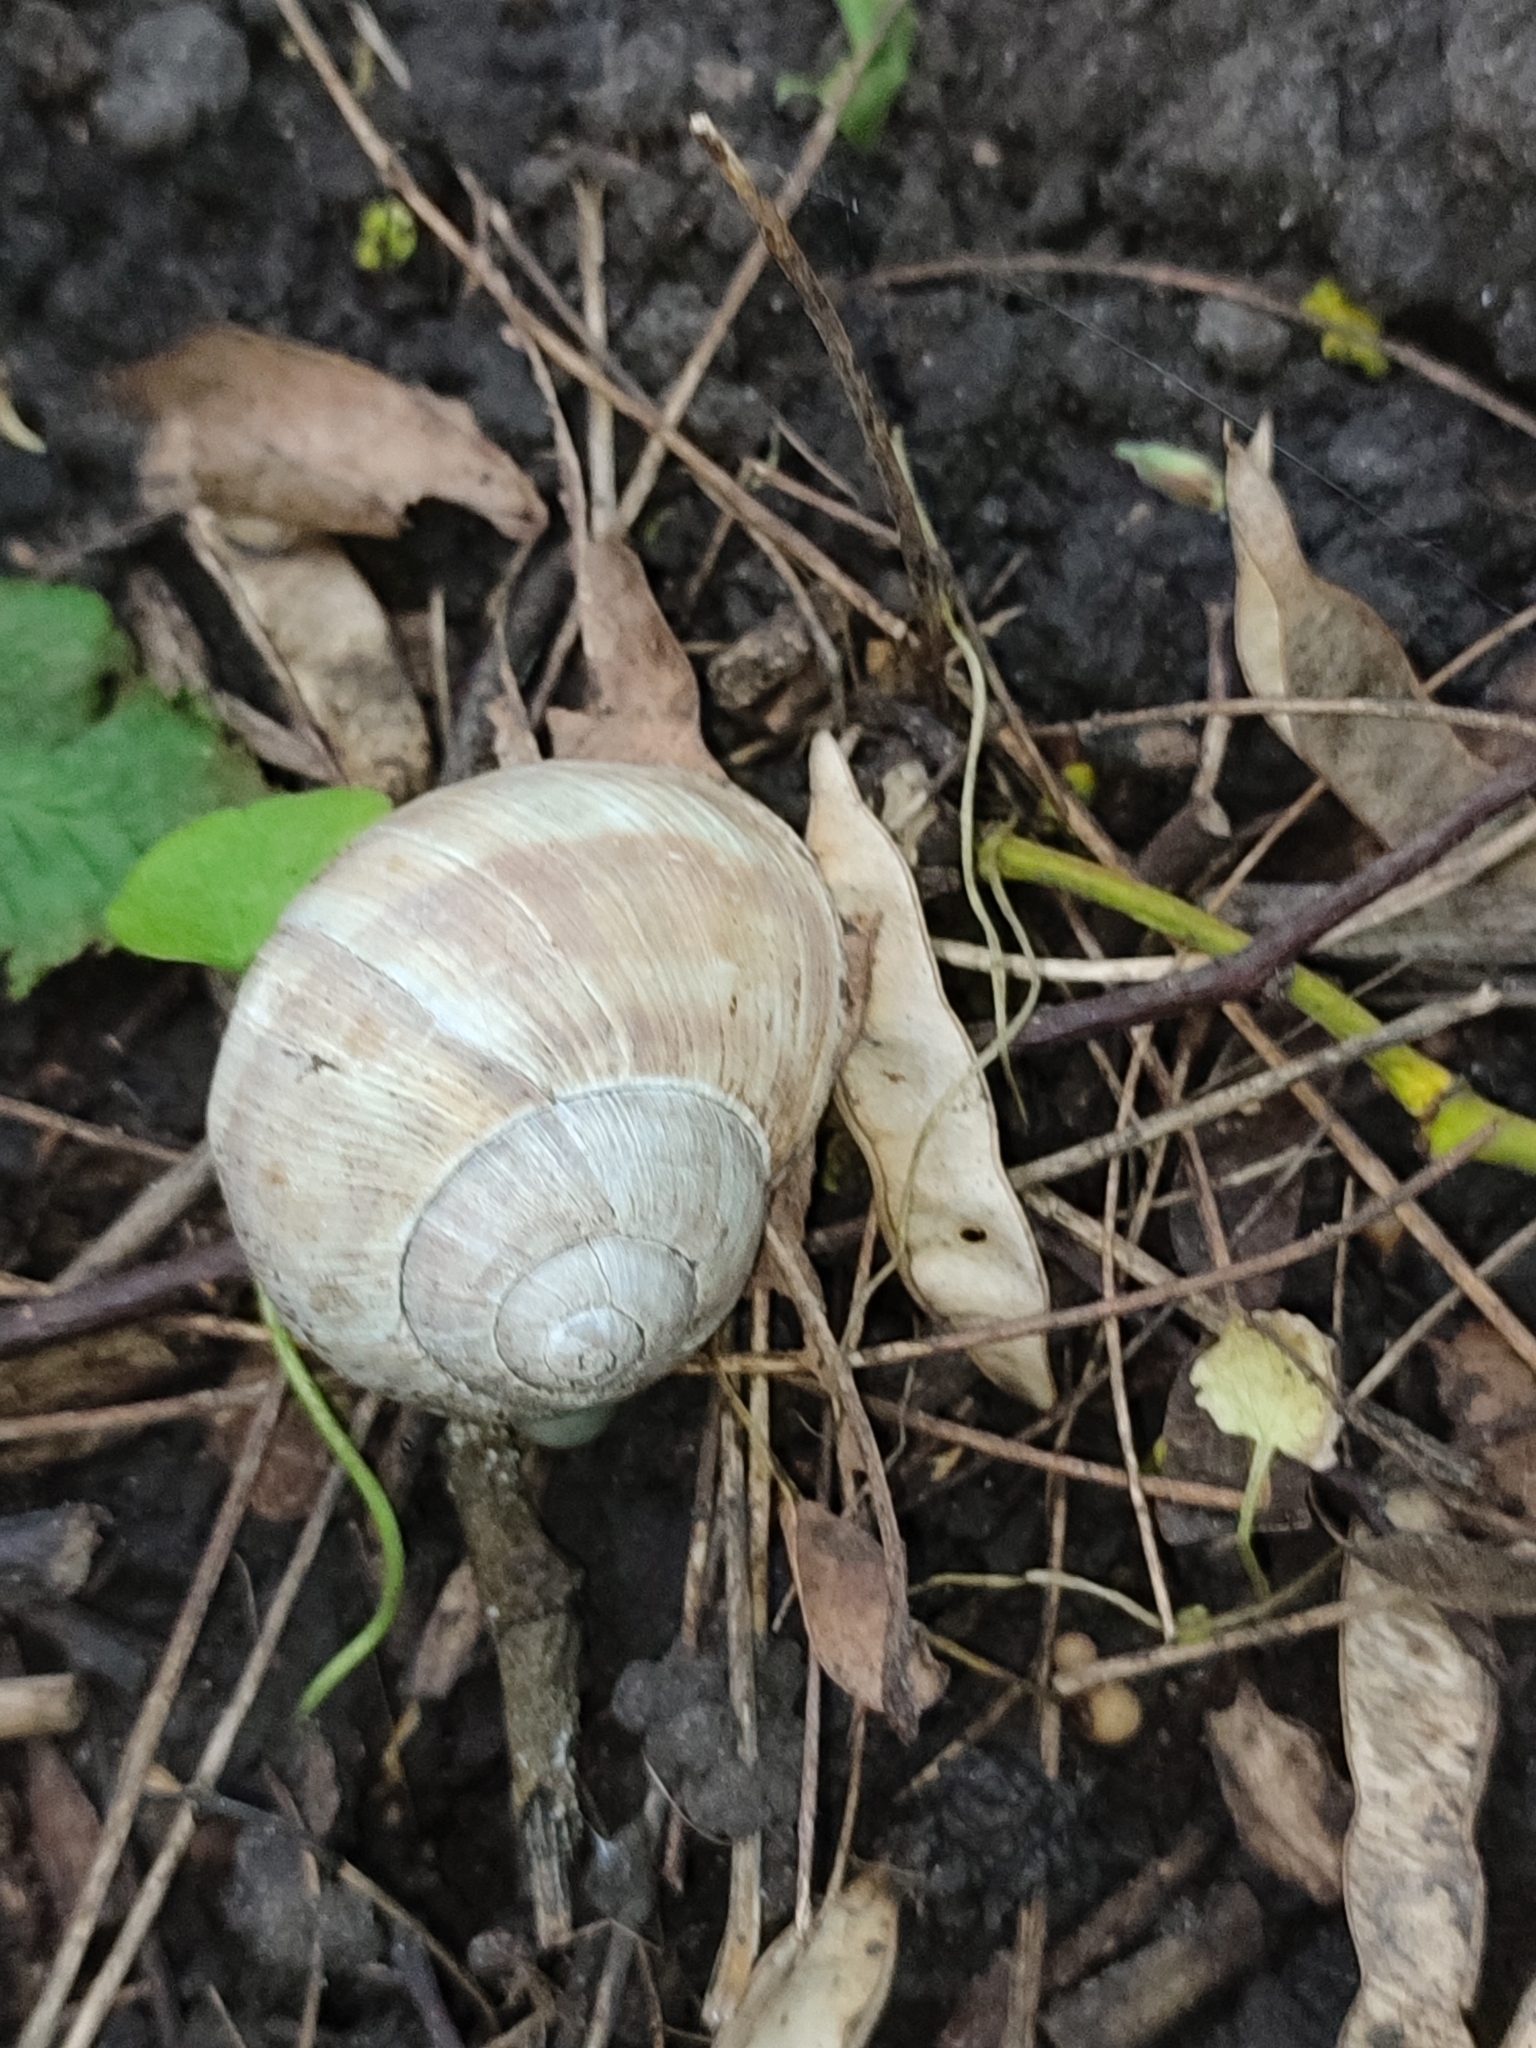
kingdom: Animalia
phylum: Mollusca
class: Gastropoda
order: Stylommatophora
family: Helicidae
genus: Helix
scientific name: Helix pomatia
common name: Roman snail
